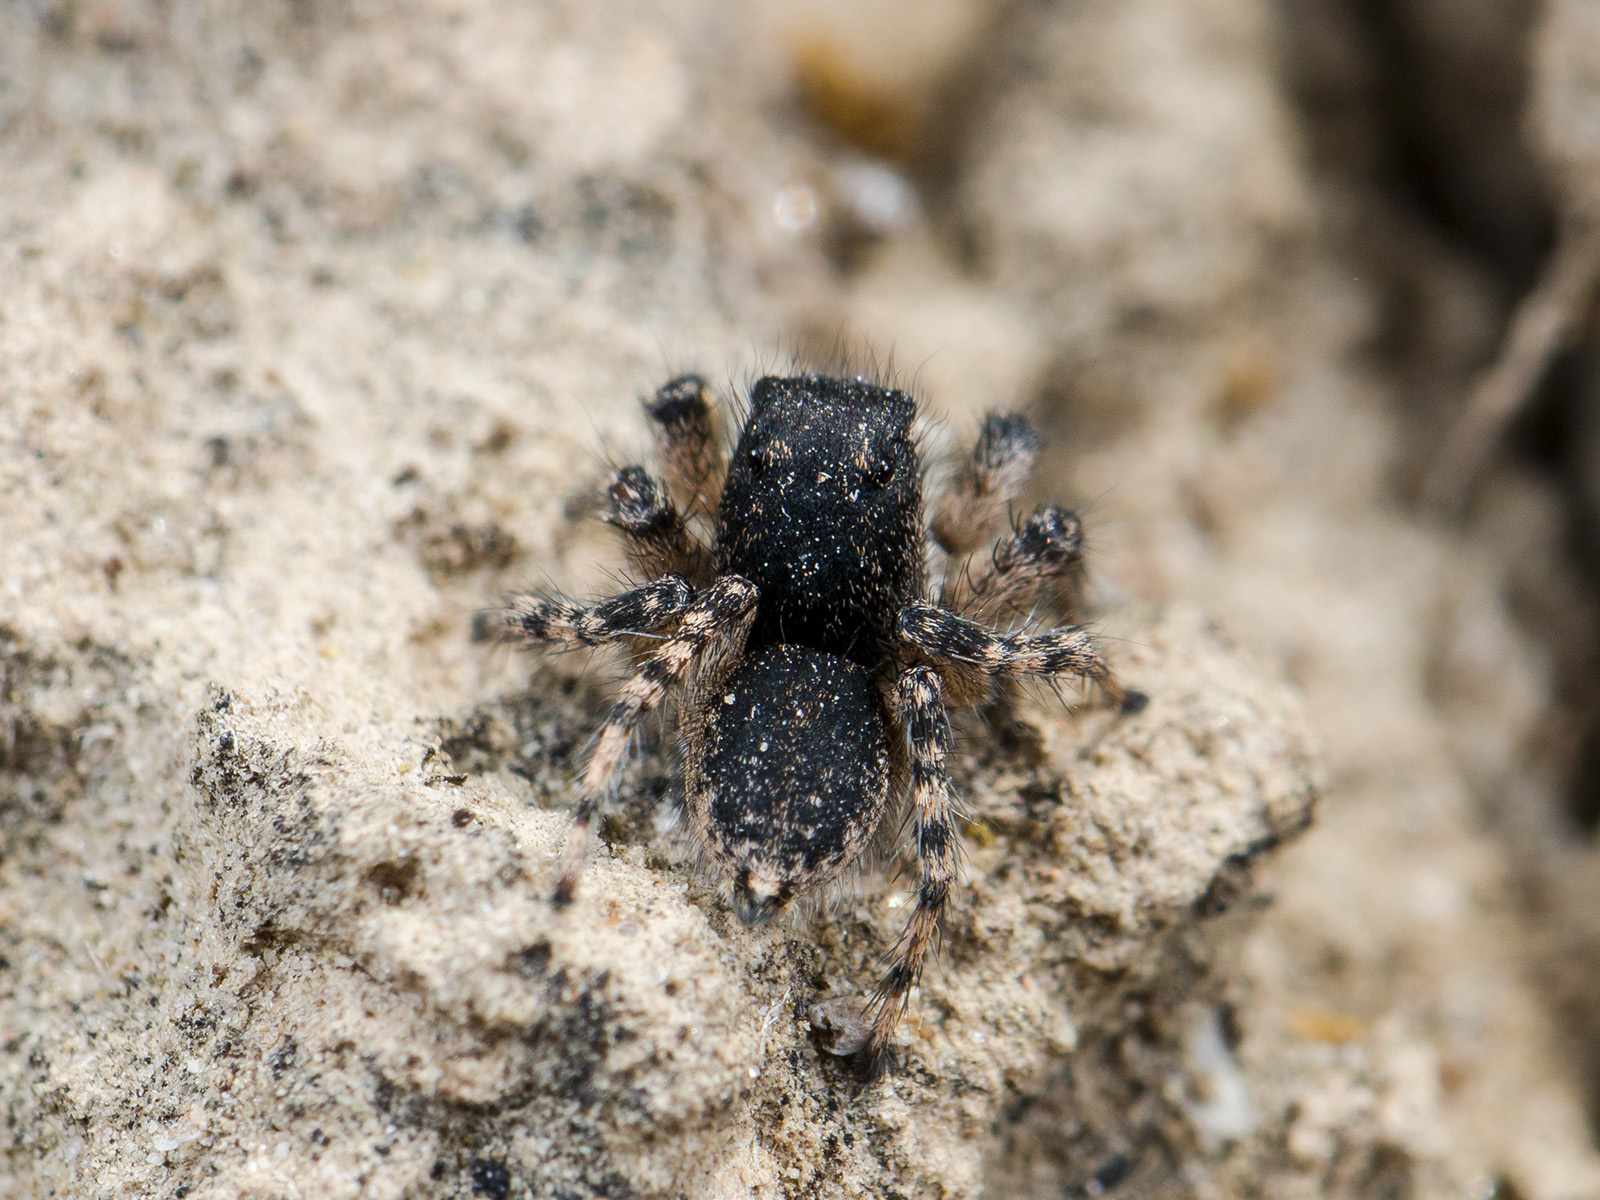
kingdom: Animalia
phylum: Arthropoda
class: Arachnida
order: Araneae
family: Salticidae
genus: Aelurillus
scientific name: Aelurillus dubatolovi
